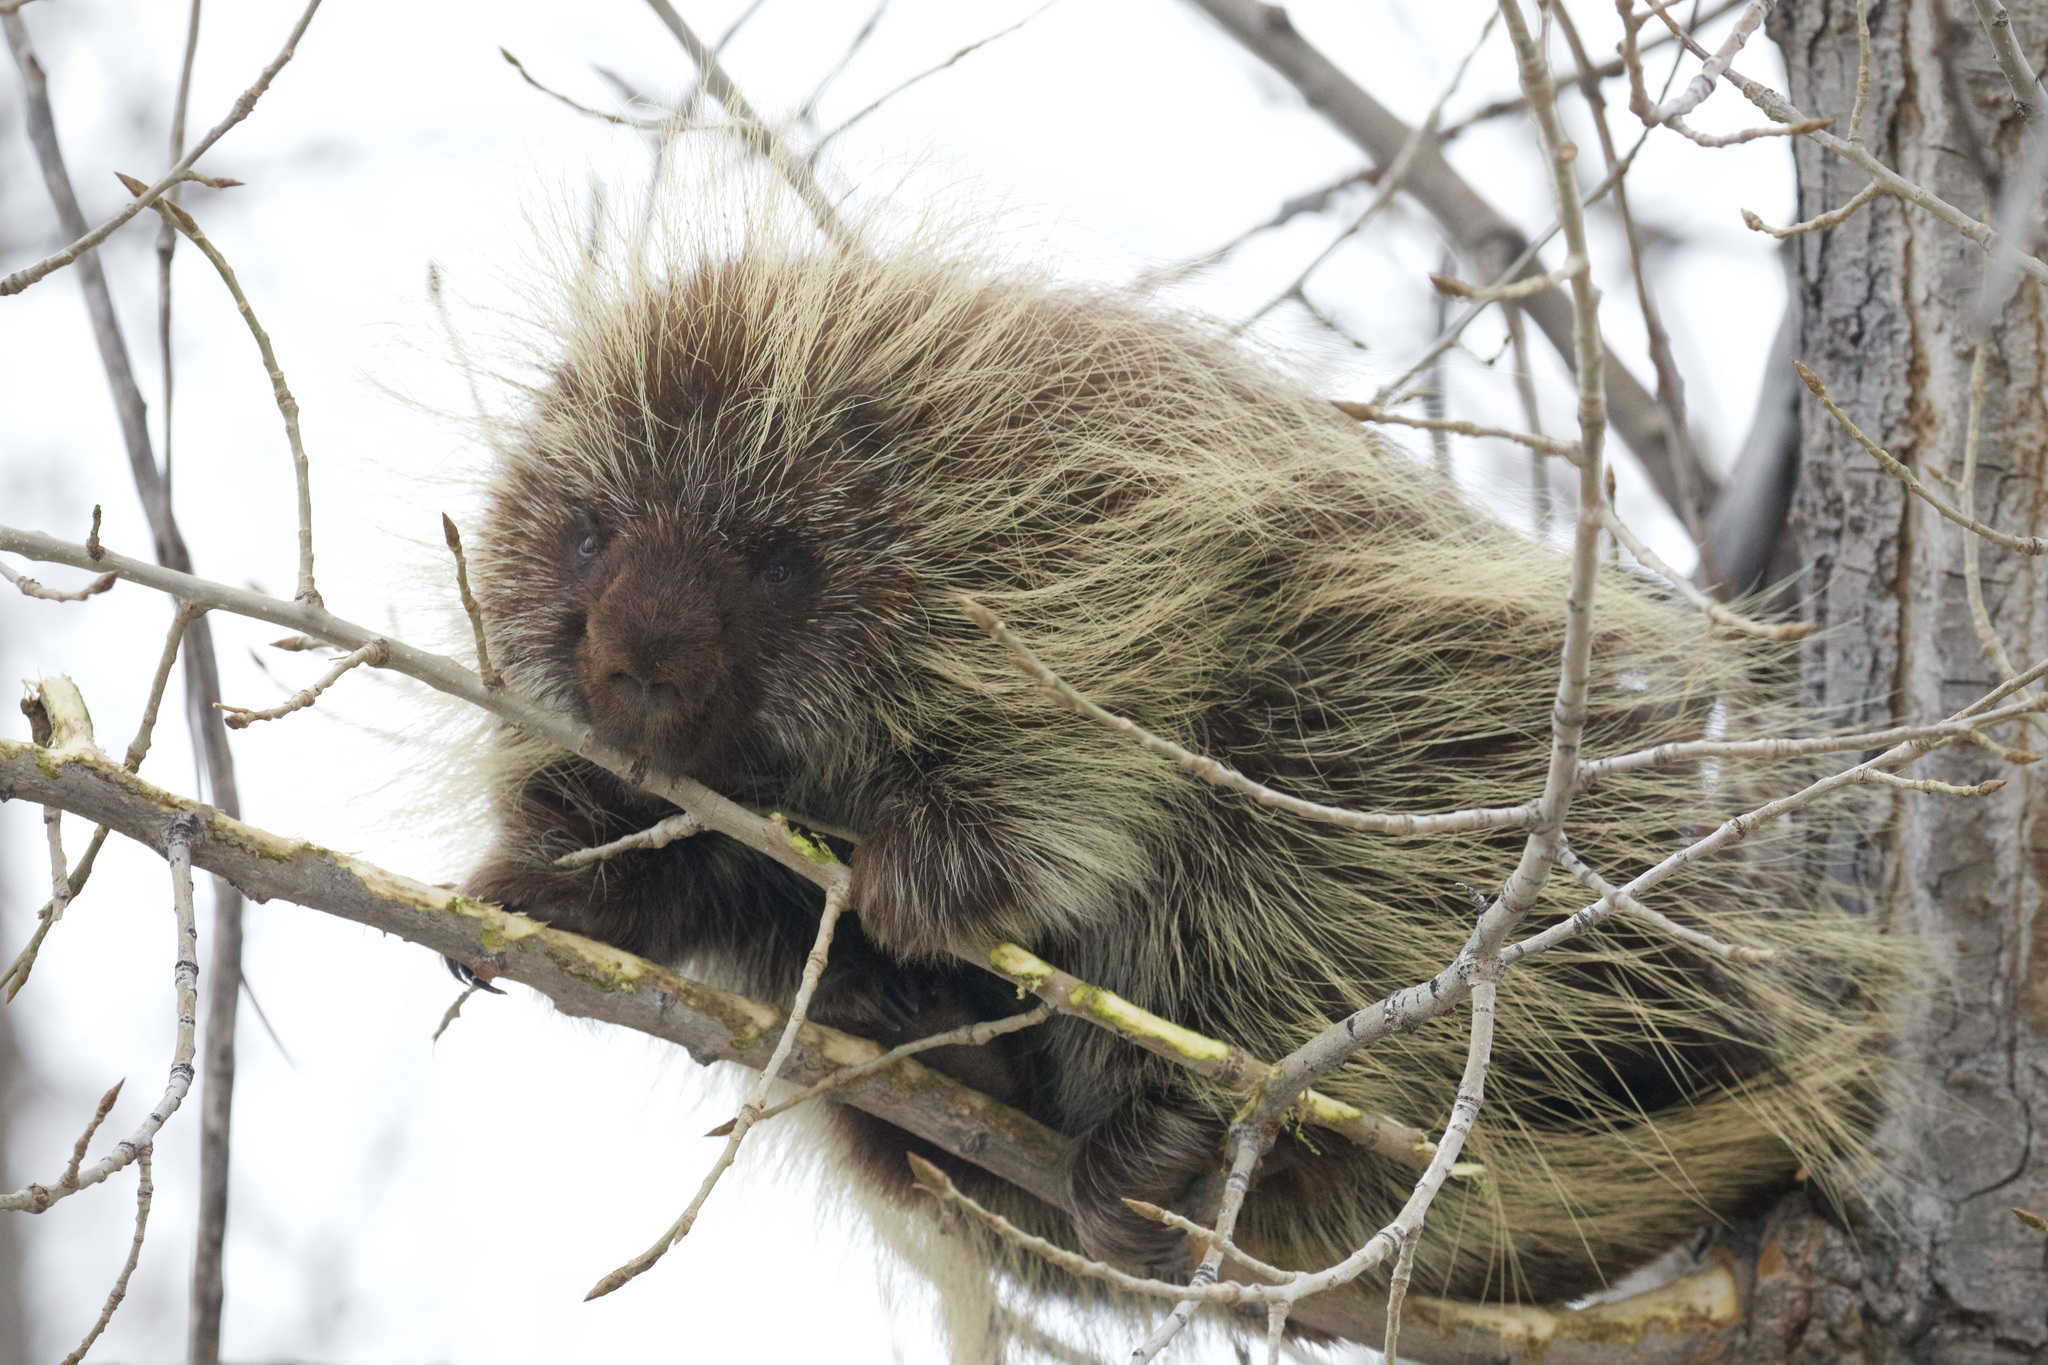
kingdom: Animalia
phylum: Chordata
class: Mammalia
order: Rodentia
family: Erethizontidae
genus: Erethizon
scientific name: Erethizon dorsatus
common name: North american porcupine
